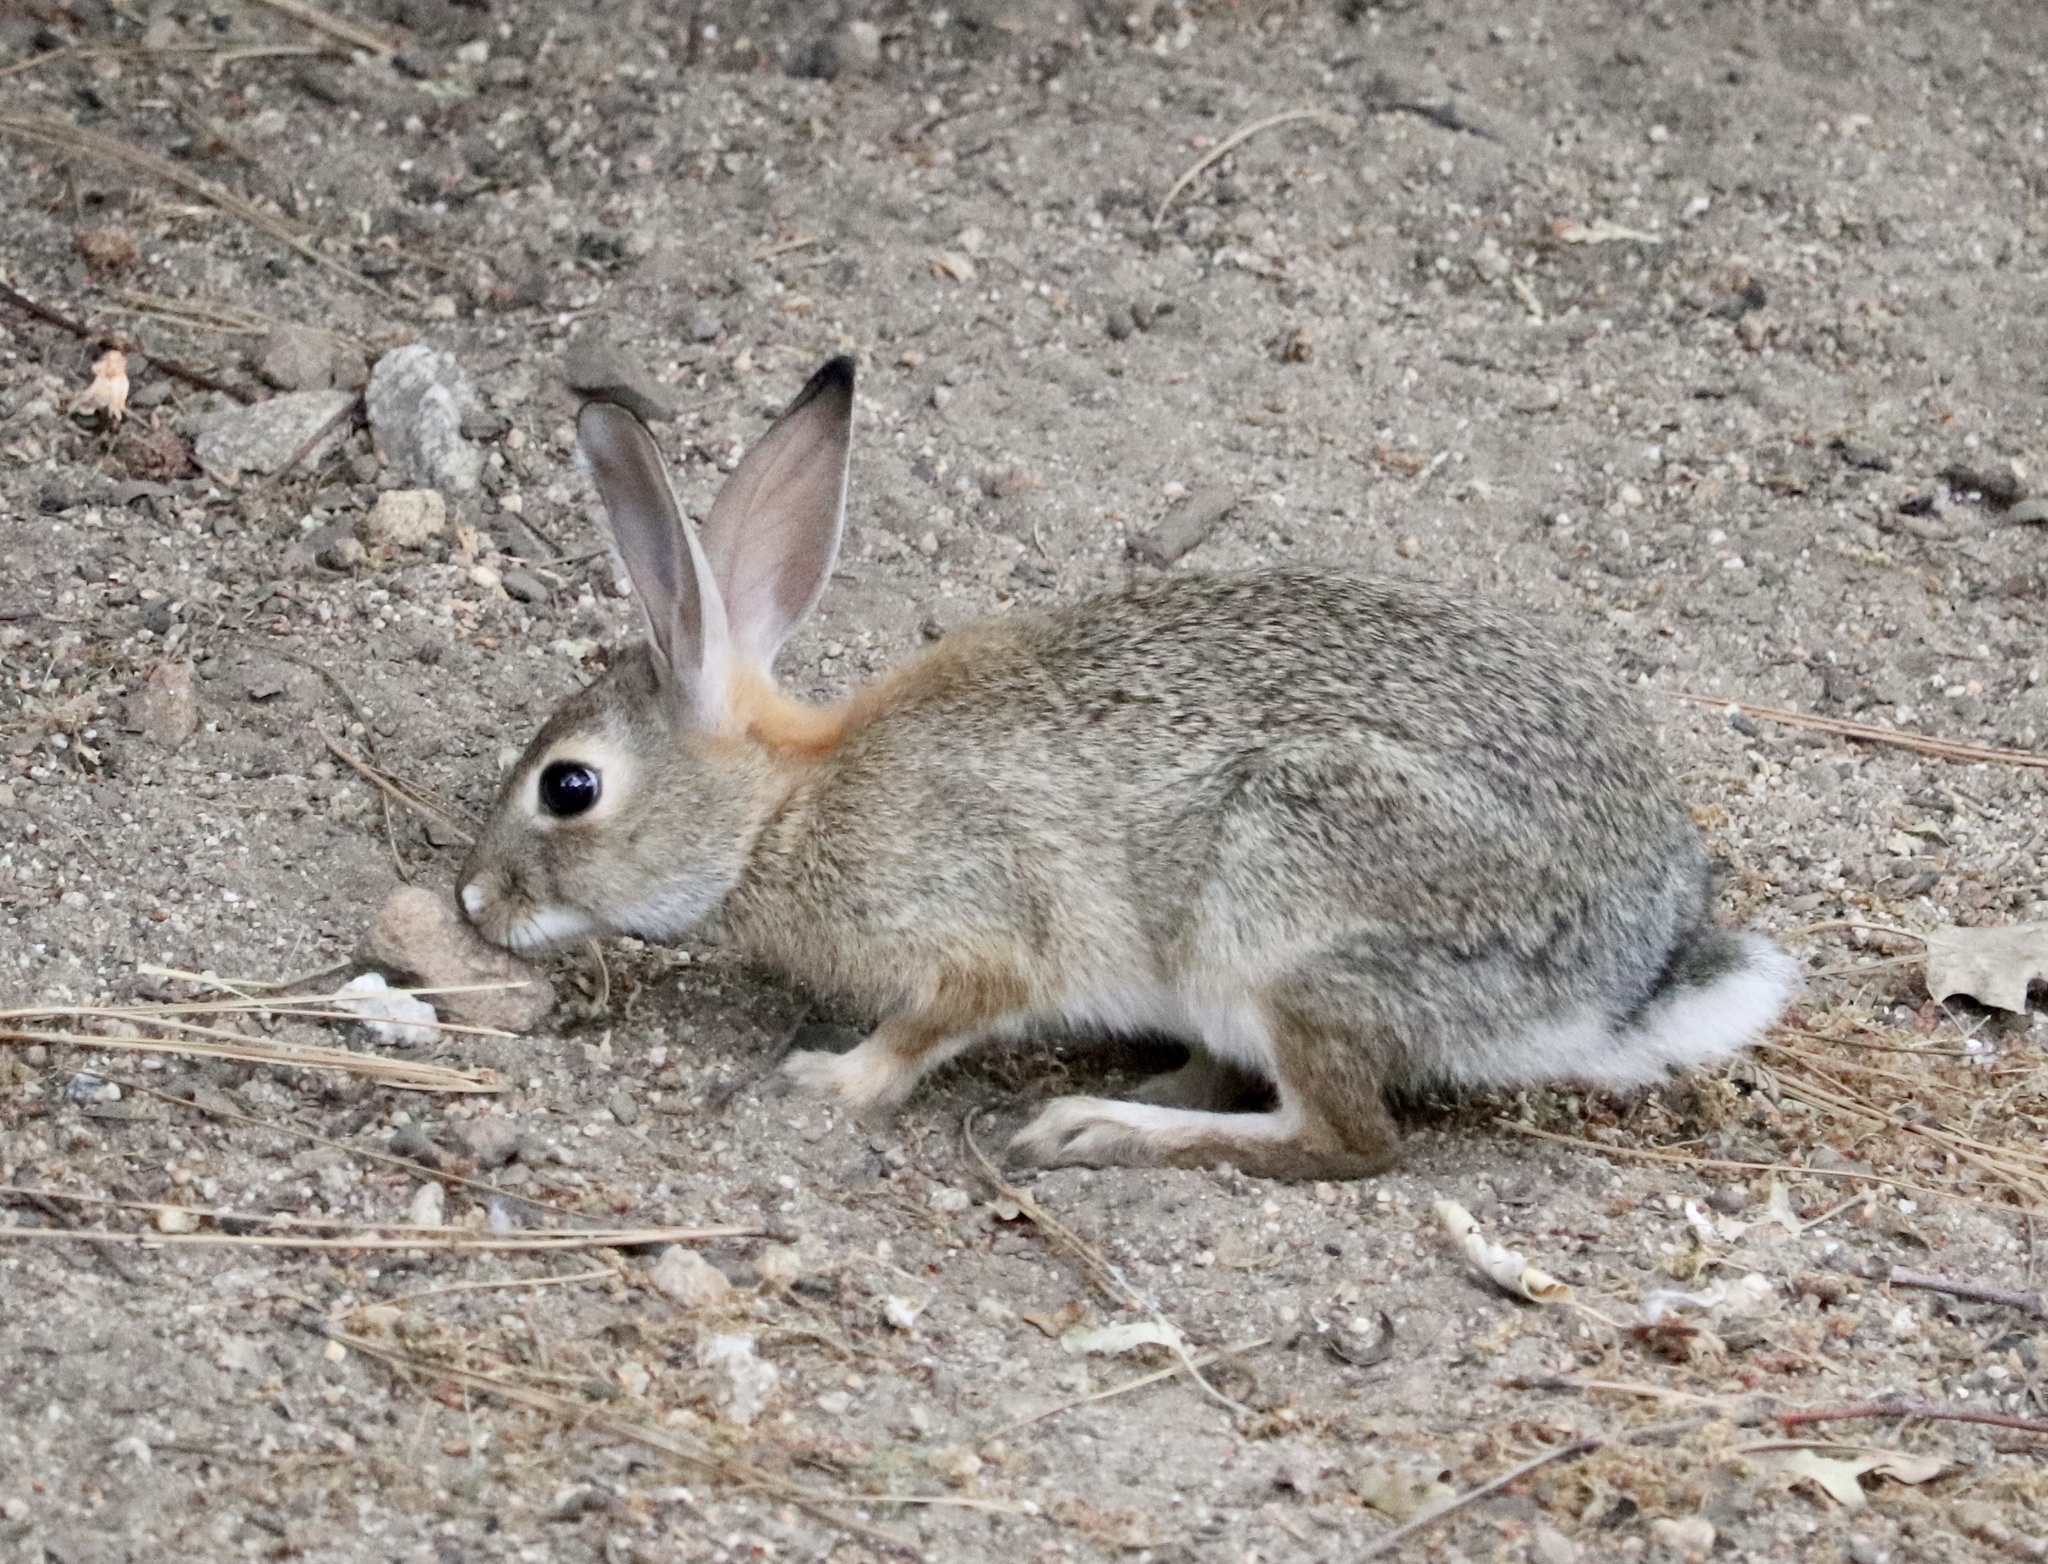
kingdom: Animalia
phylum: Chordata
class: Mammalia
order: Lagomorpha
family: Leporidae
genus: Sylvilagus
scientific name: Sylvilagus audubonii
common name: Desert cottontail
